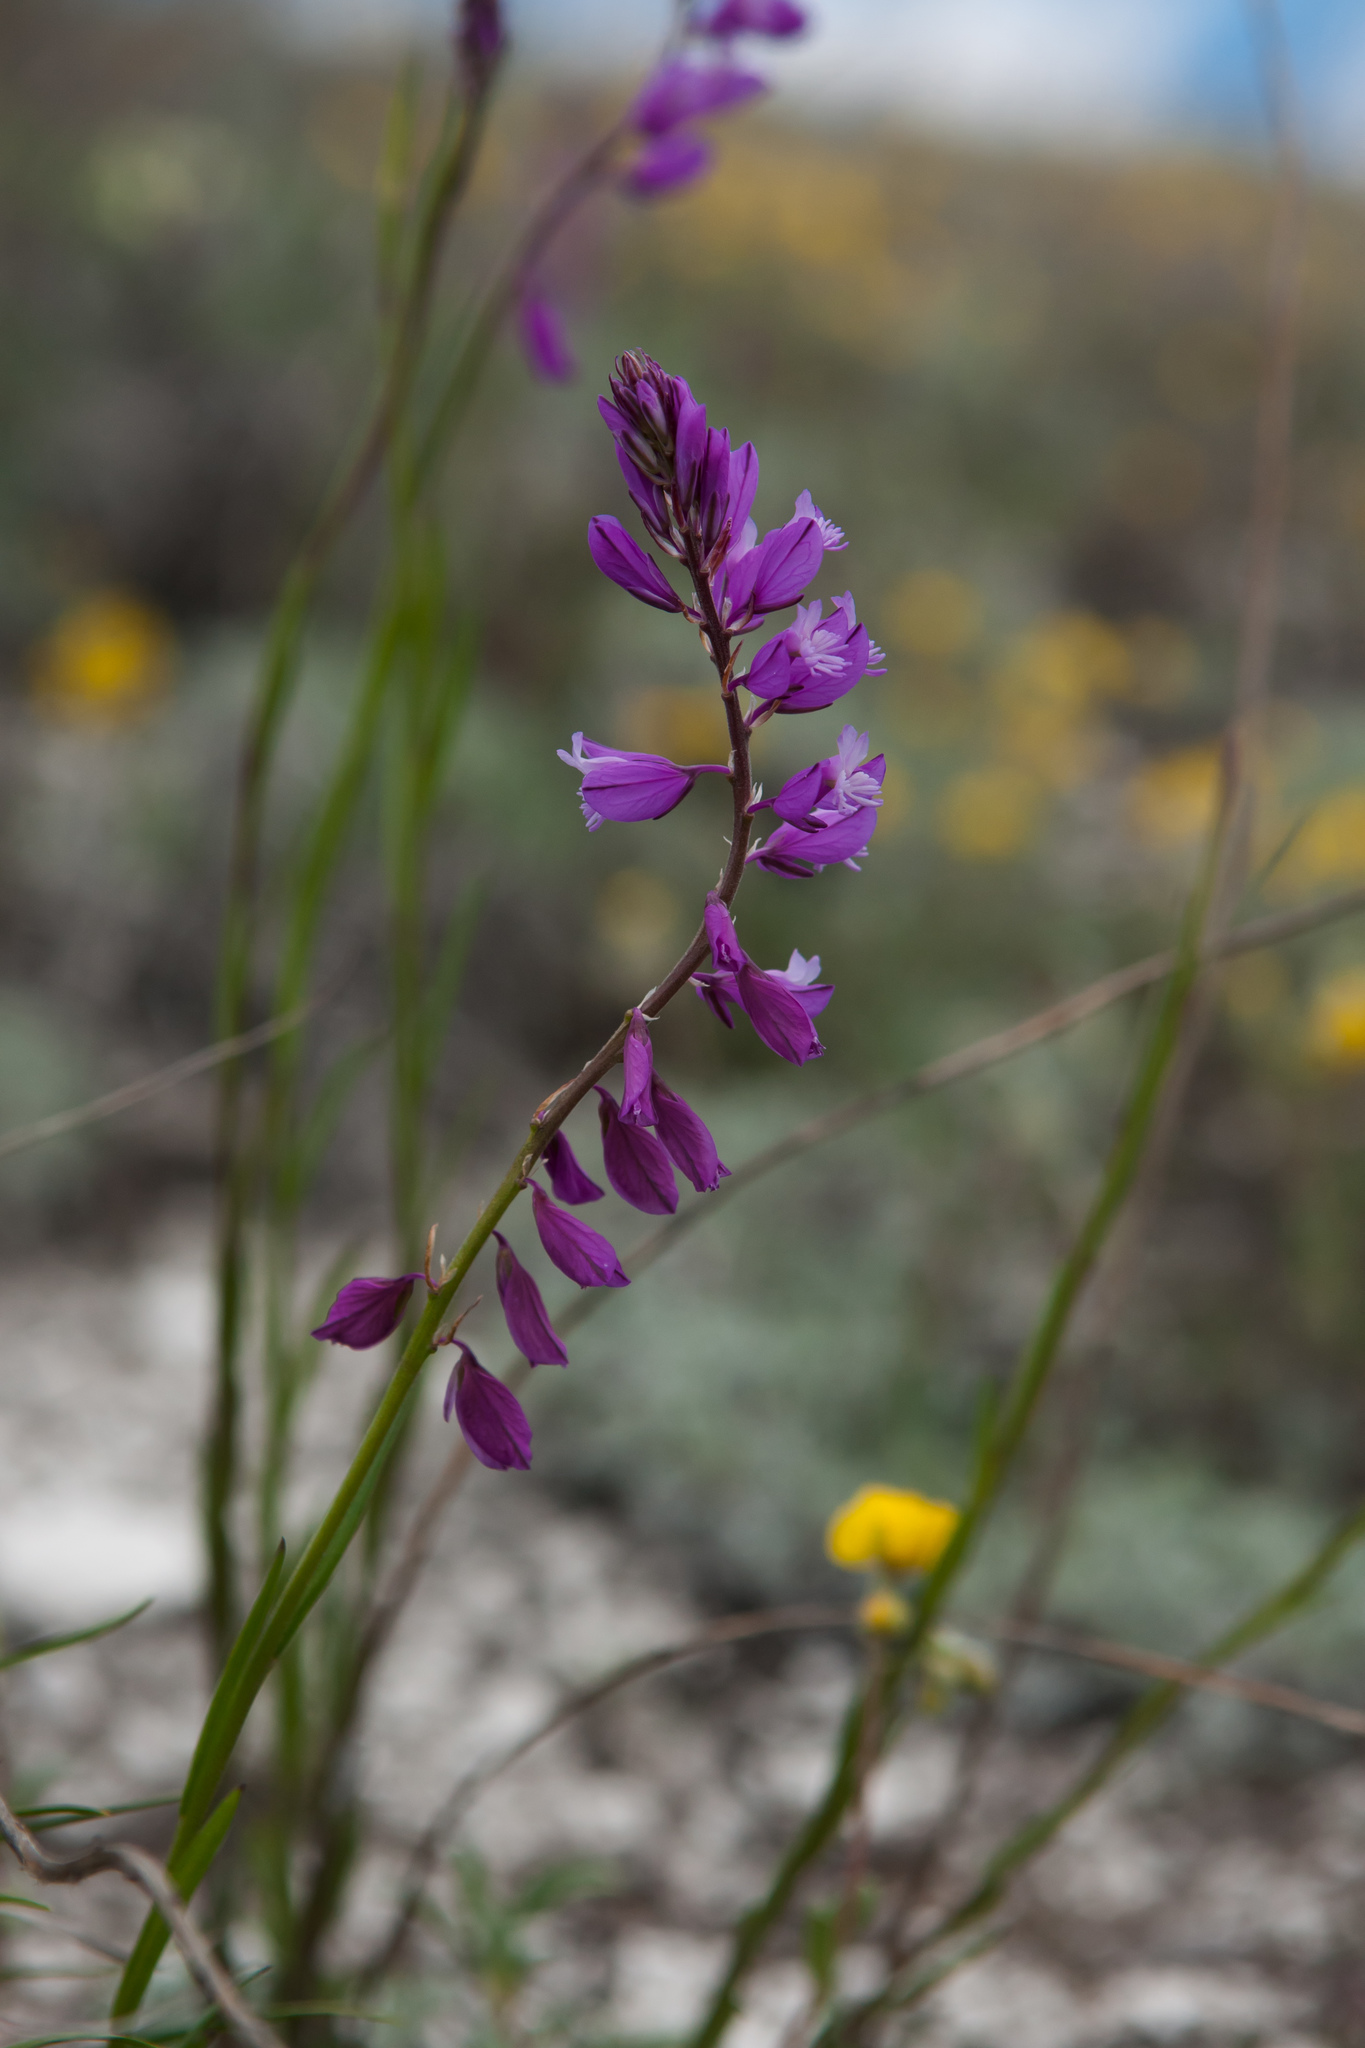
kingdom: Plantae
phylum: Tracheophyta
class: Magnoliopsida
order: Fabales
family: Polygalaceae
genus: Polygala
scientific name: Polygala nicaeensis
